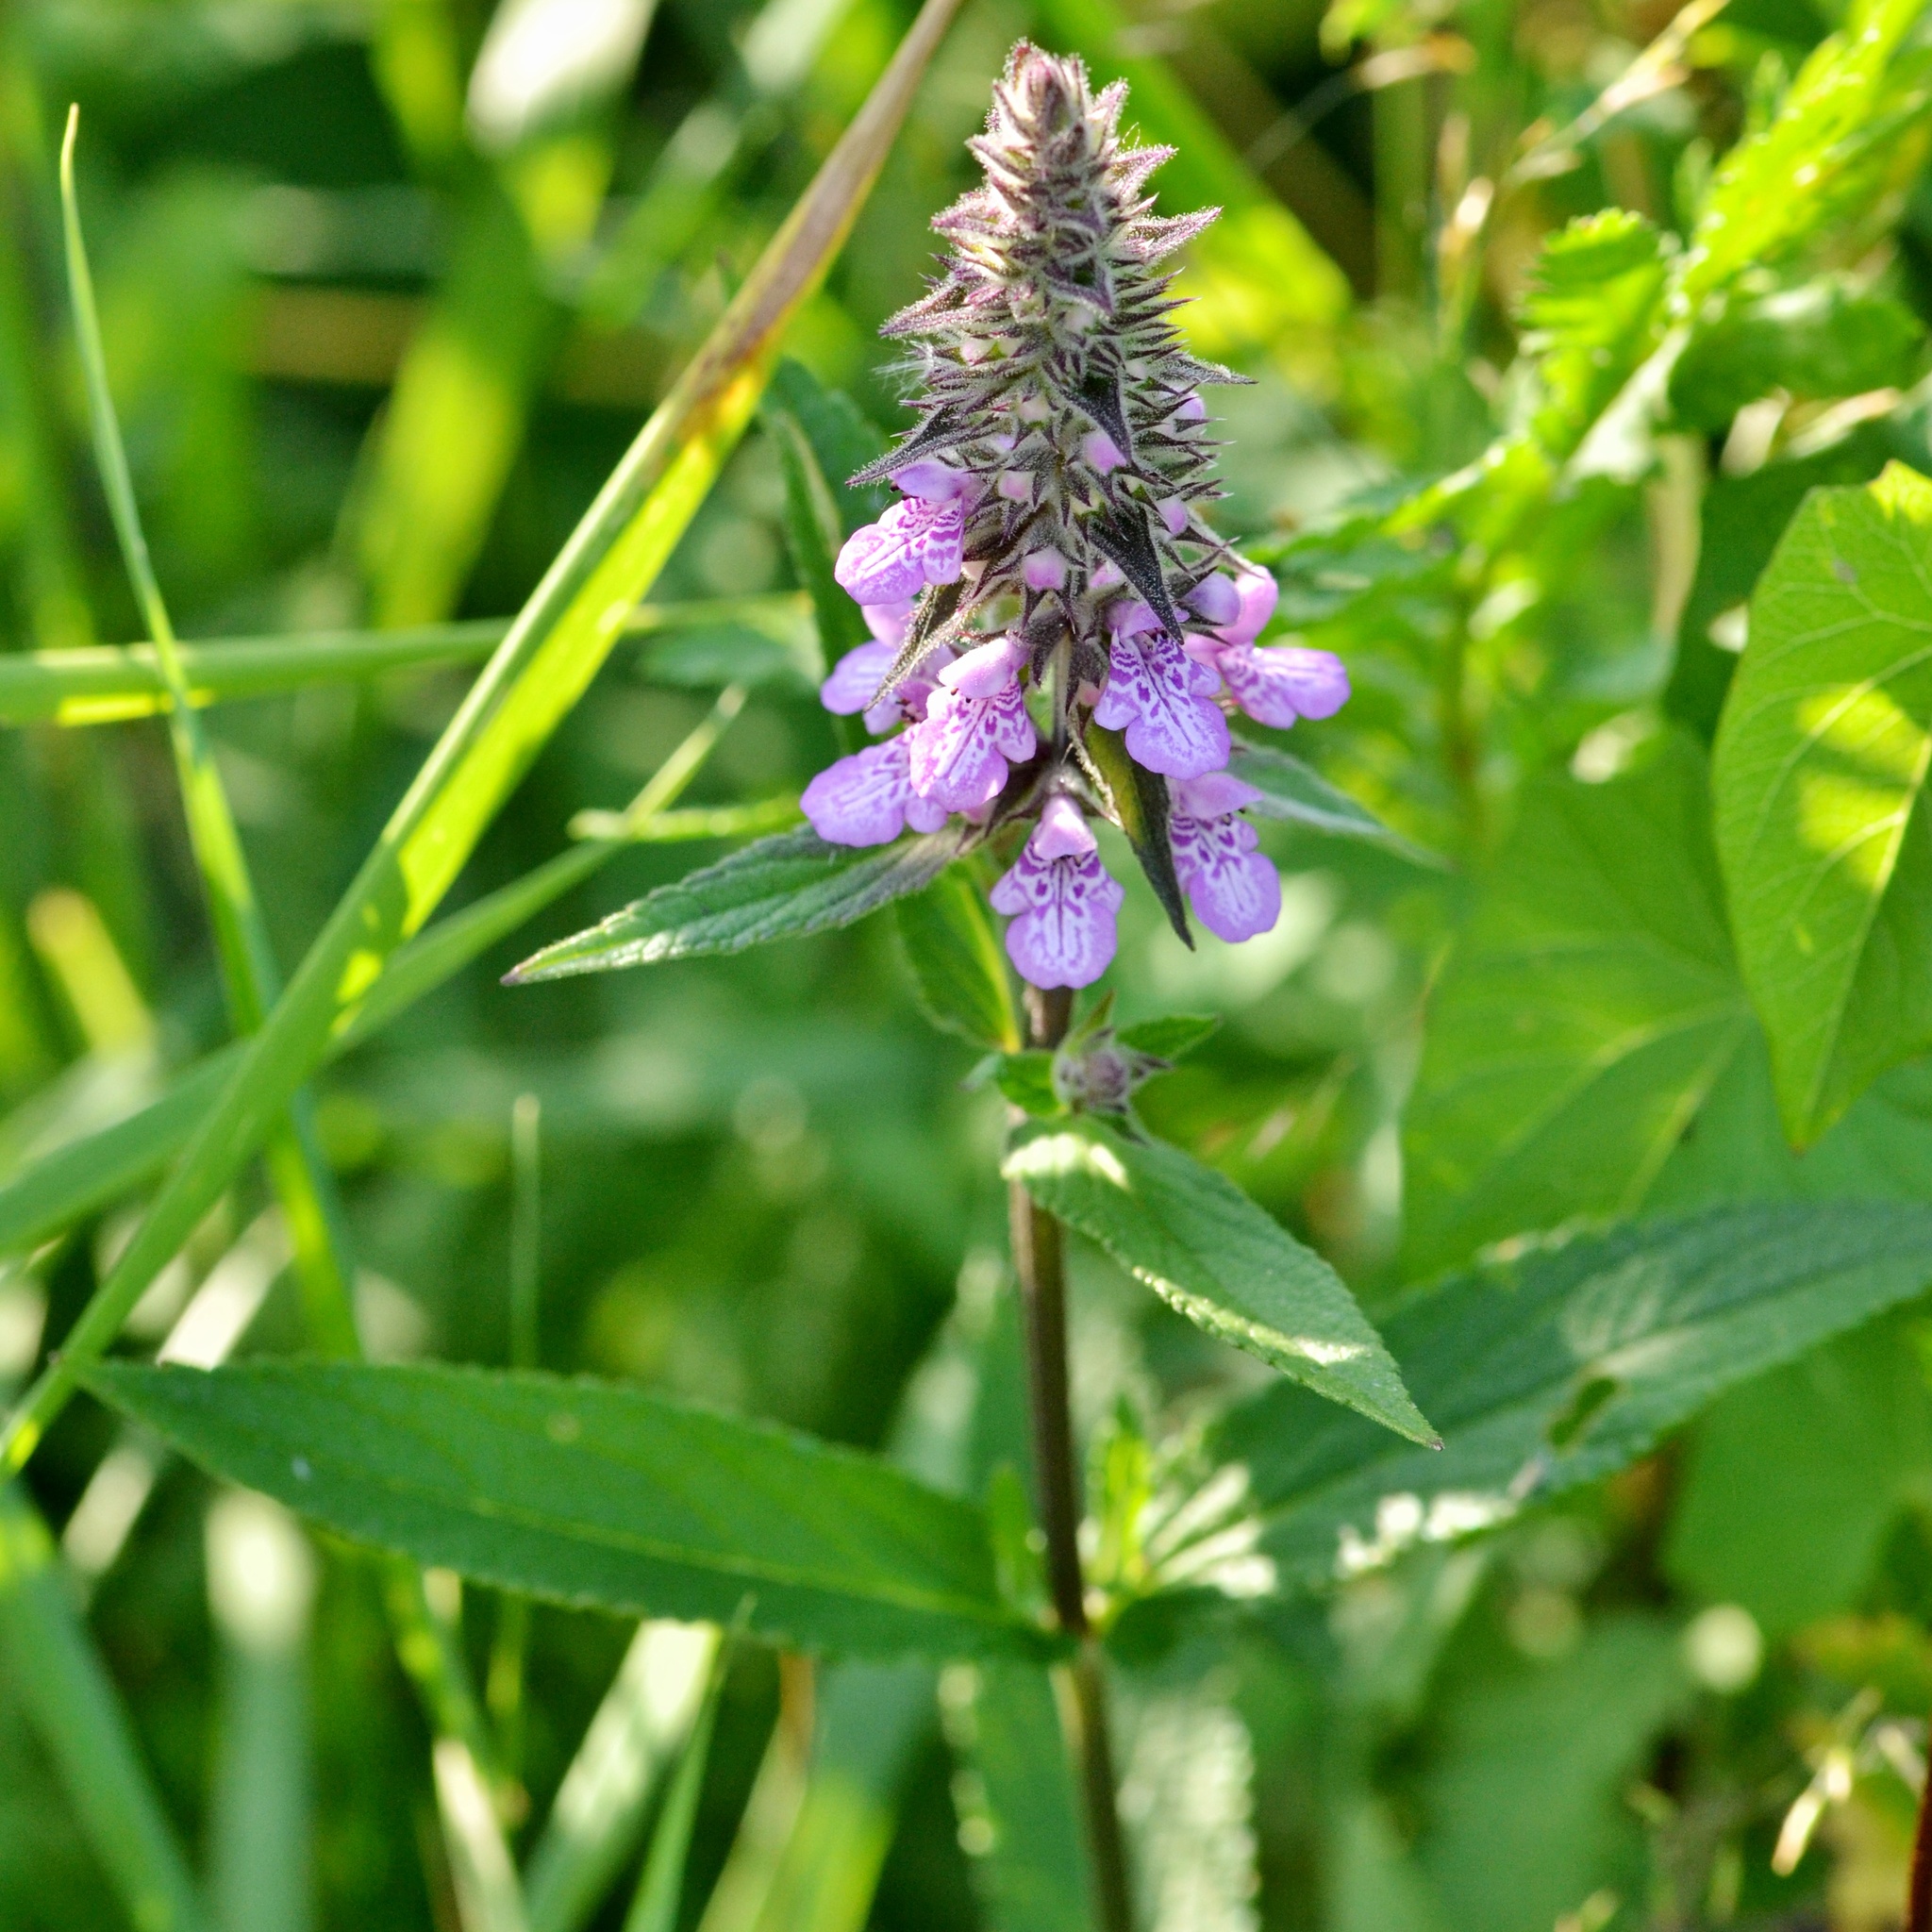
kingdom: Plantae
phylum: Tracheophyta
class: Magnoliopsida
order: Lamiales
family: Lamiaceae
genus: Stachys
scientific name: Stachys palustris
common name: Marsh woundwort
